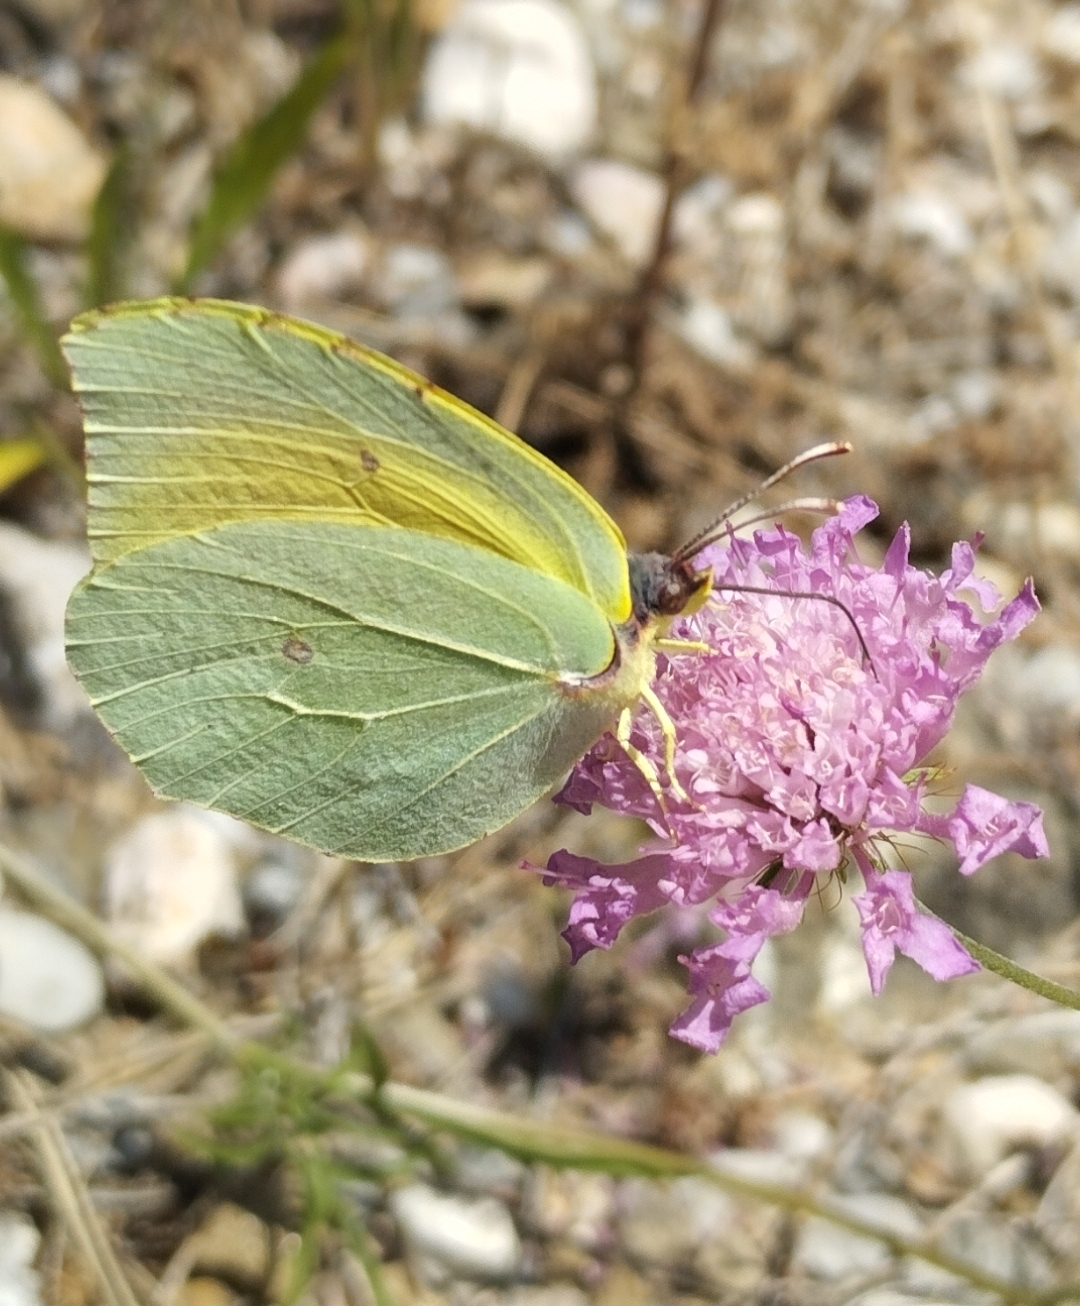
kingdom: Animalia
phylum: Arthropoda
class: Insecta
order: Lepidoptera
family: Pieridae
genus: Gonepteryx
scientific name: Gonepteryx cleopatra
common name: Cleopatra
